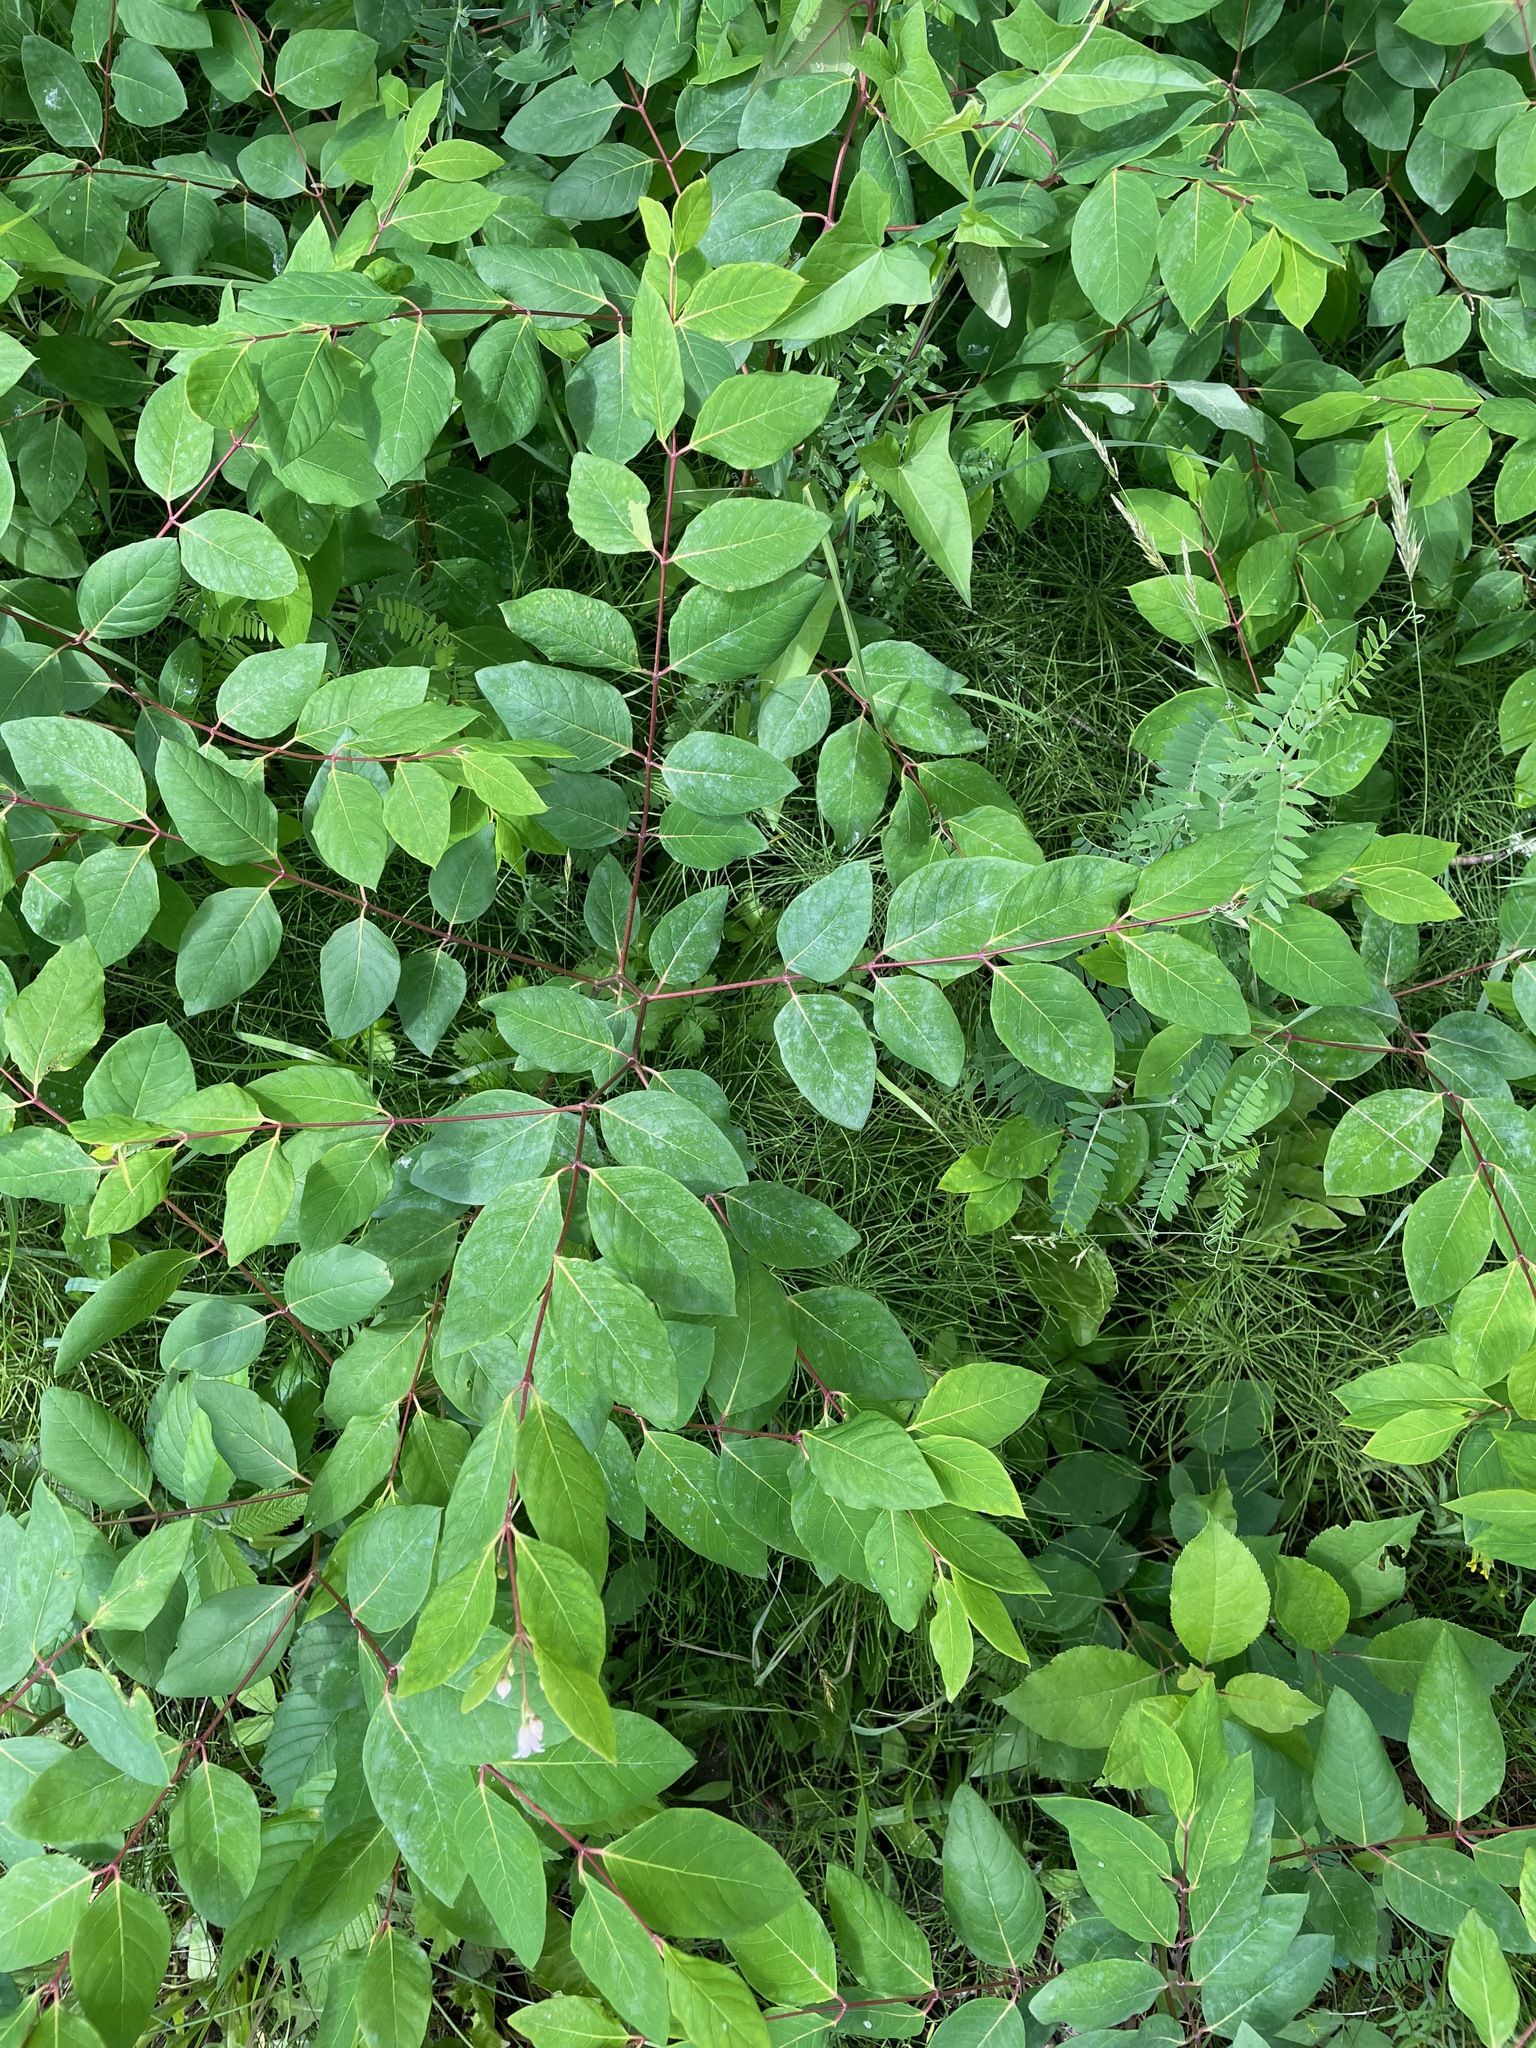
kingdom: Plantae
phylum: Tracheophyta
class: Magnoliopsida
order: Gentianales
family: Apocynaceae
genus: Apocynum
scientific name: Apocynum androsaemifolium
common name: Spreading dogbane
